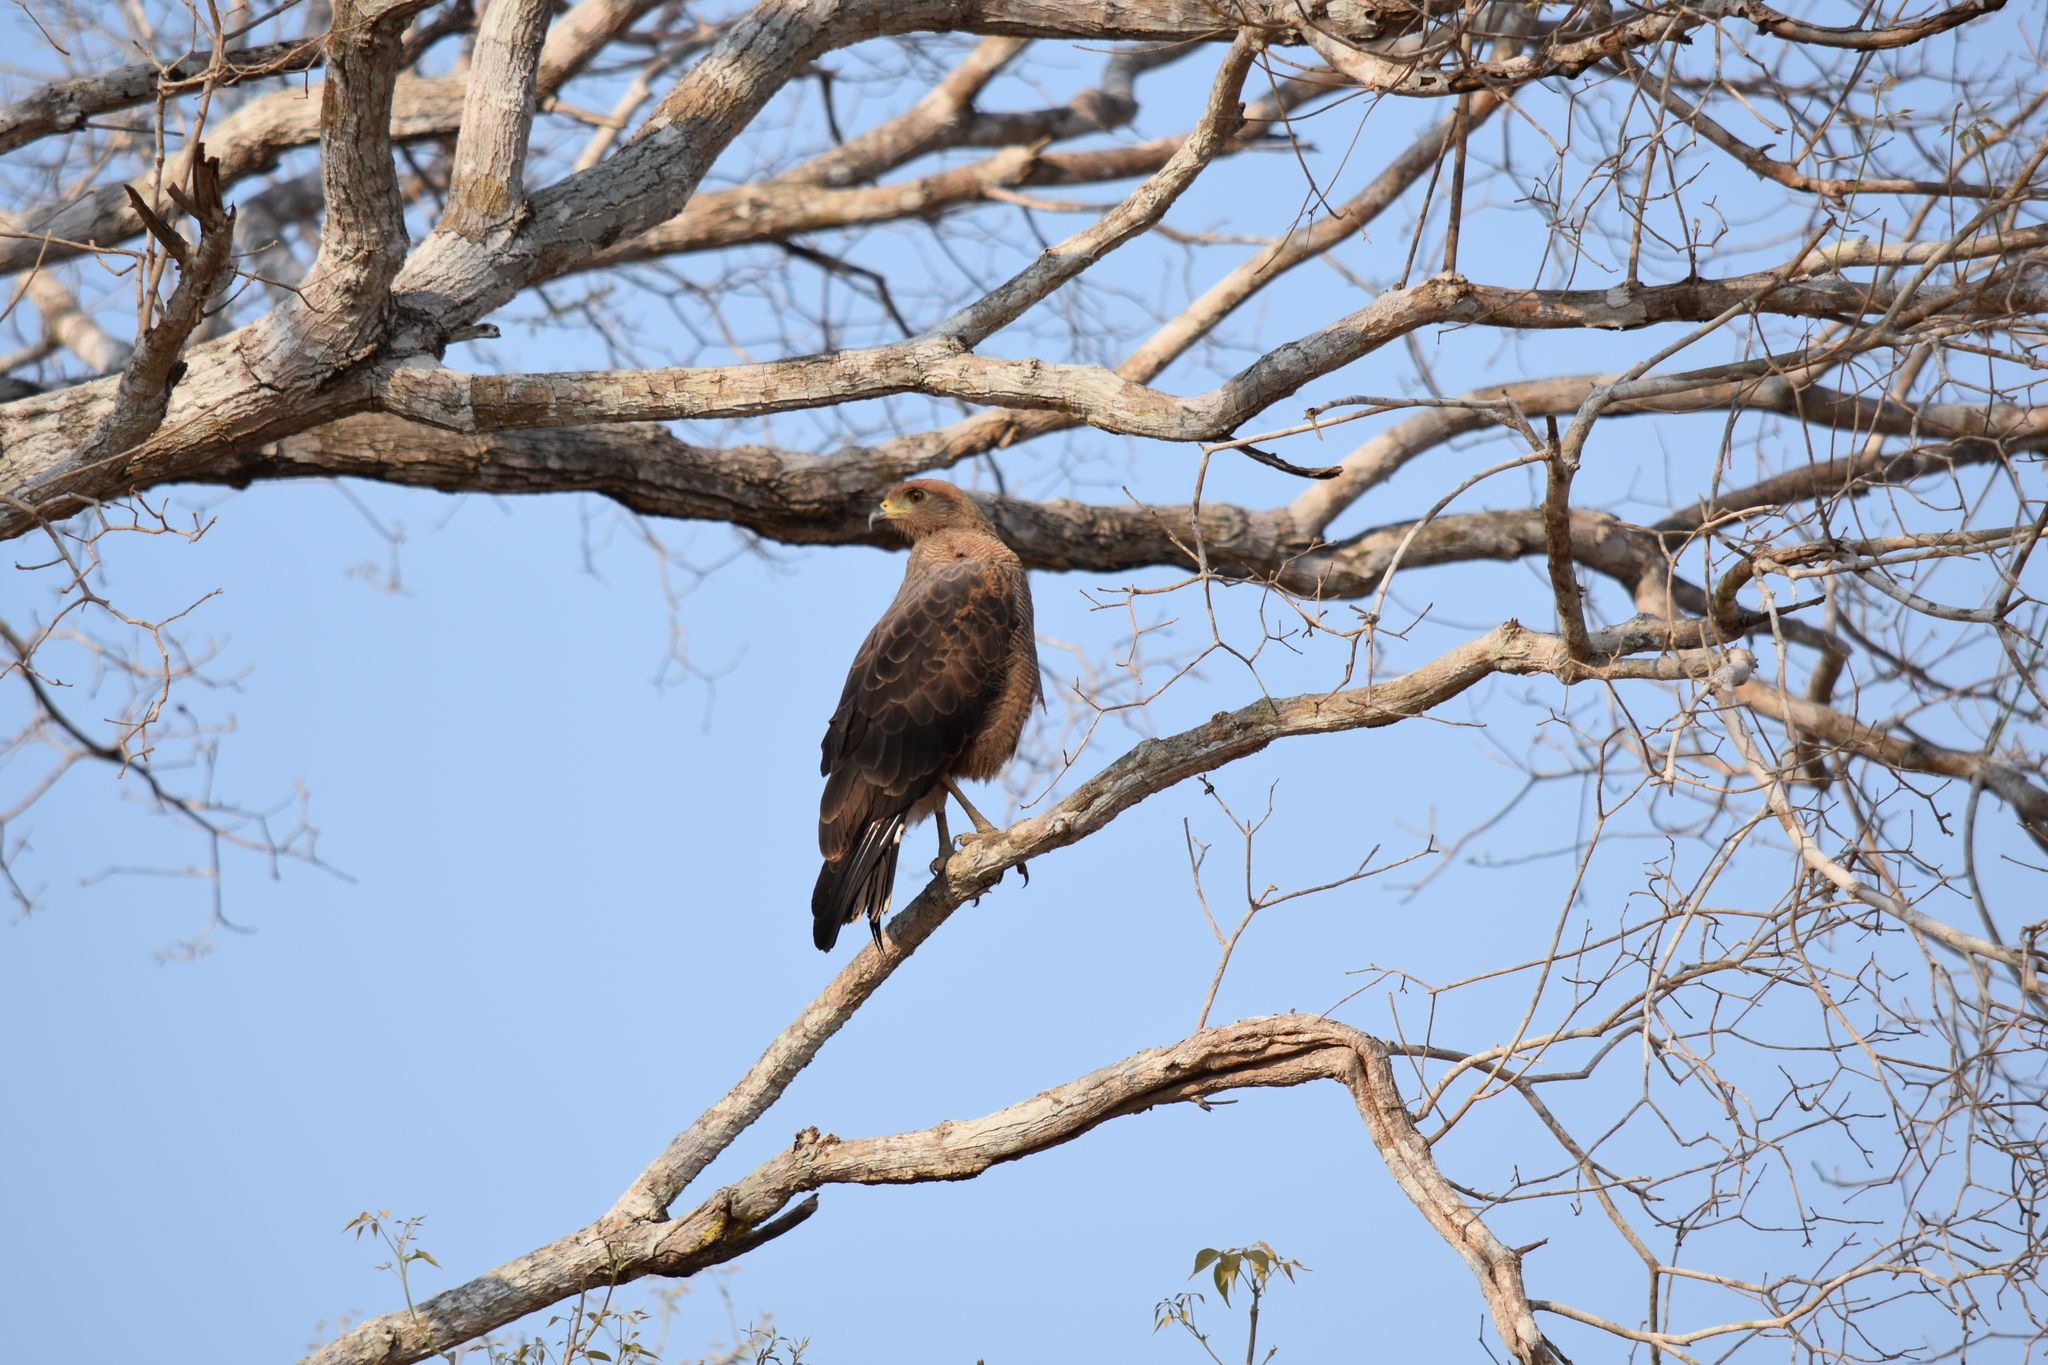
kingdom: Animalia
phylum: Chordata
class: Aves
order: Accipitriformes
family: Accipitridae
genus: Buteogallus
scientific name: Buteogallus meridionalis
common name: Savanna hawk
